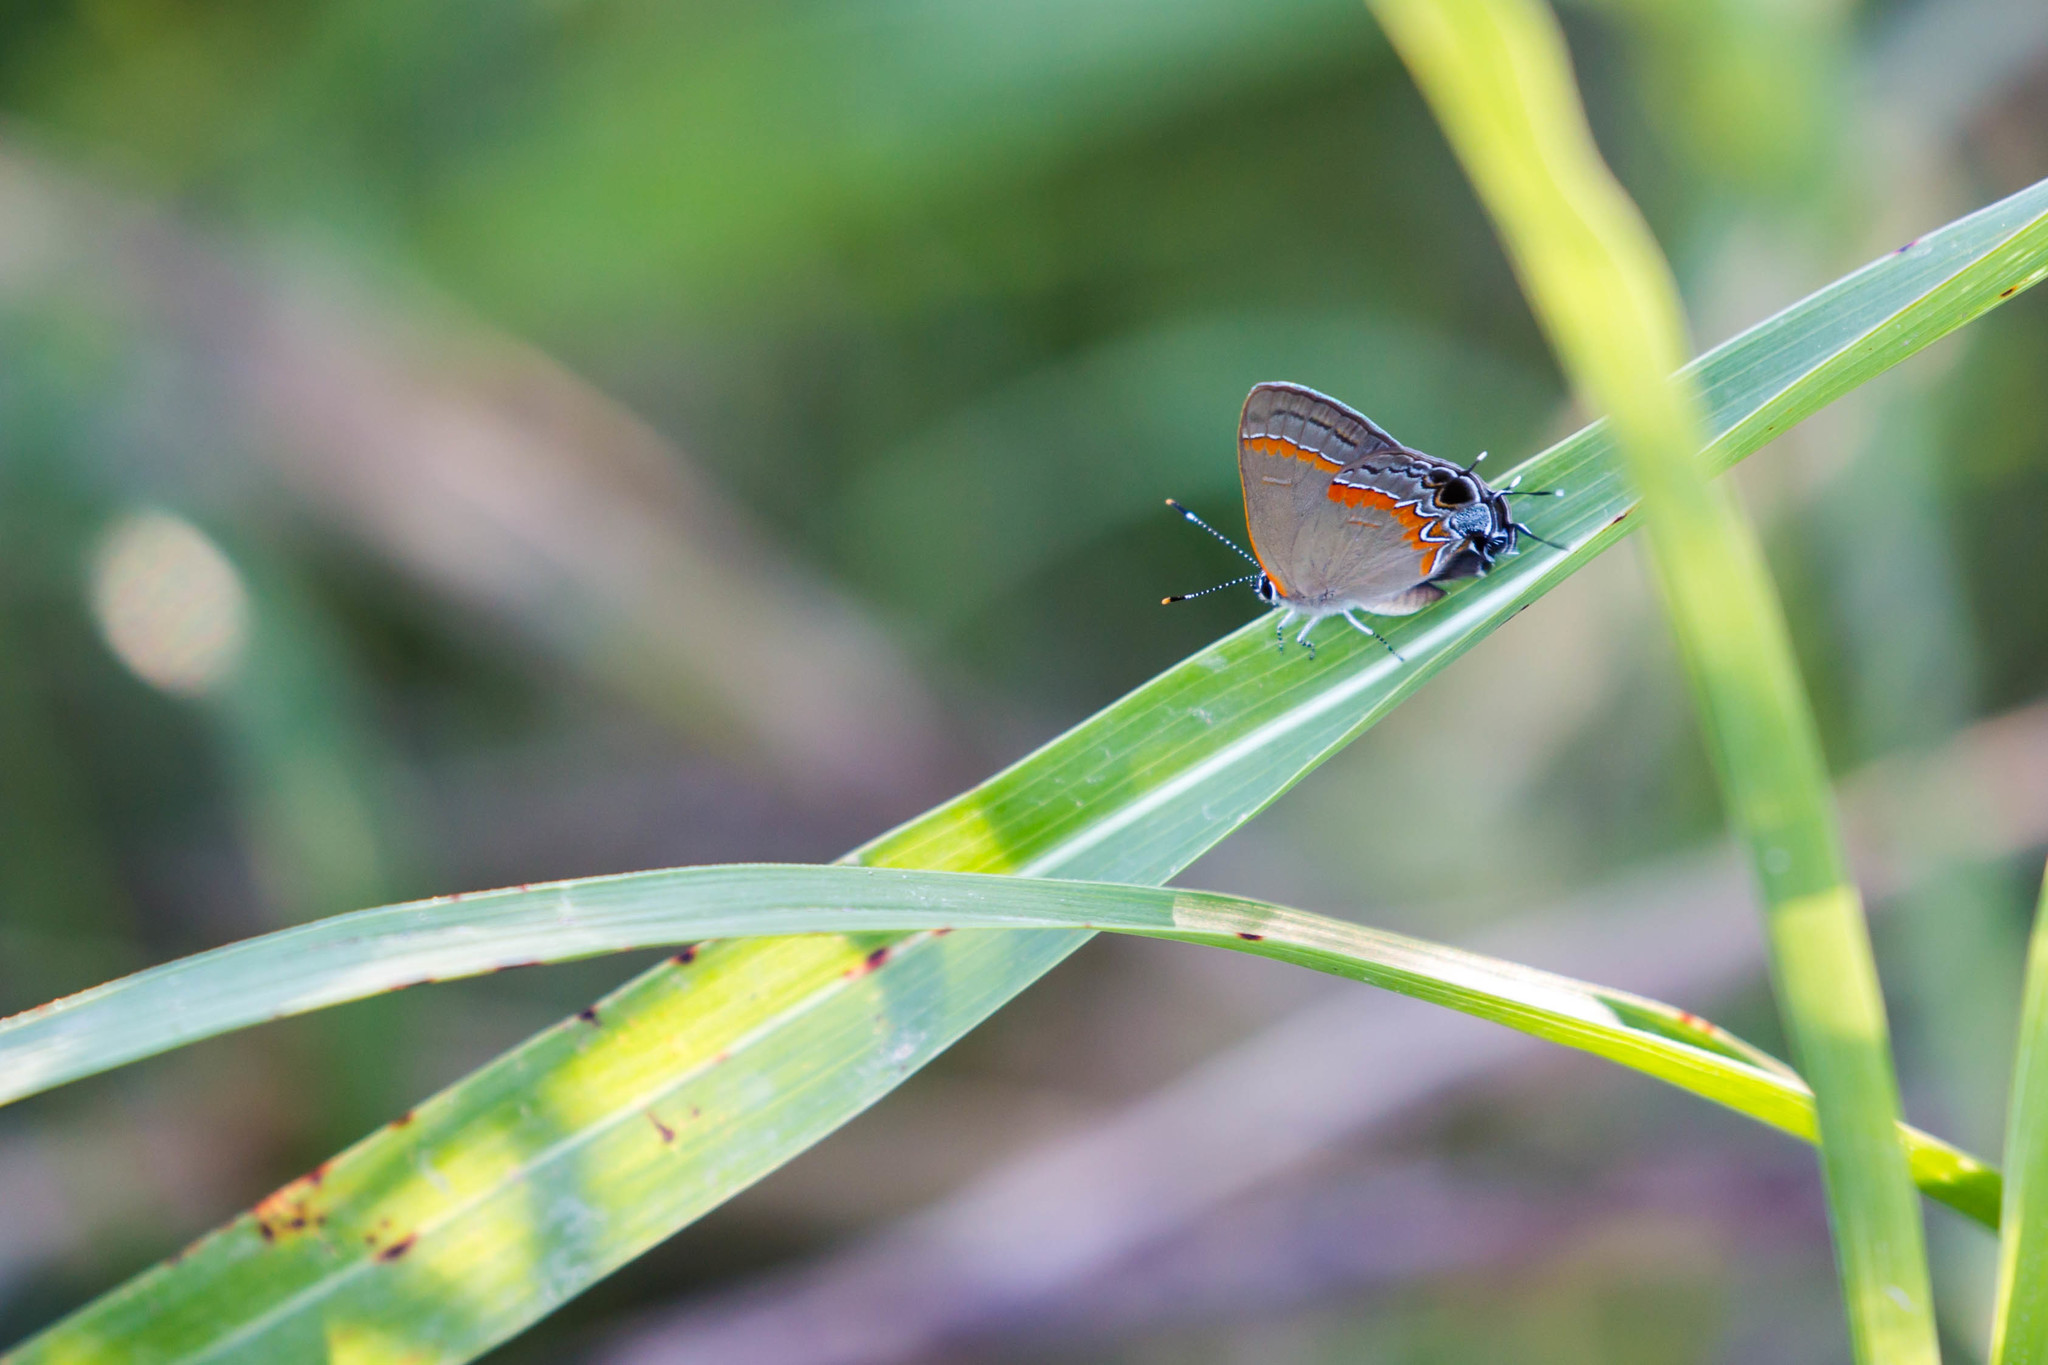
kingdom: Animalia
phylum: Arthropoda
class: Insecta
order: Lepidoptera
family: Lycaenidae
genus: Calycopis
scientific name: Calycopis cecrops
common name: Red-banded hairstreak
